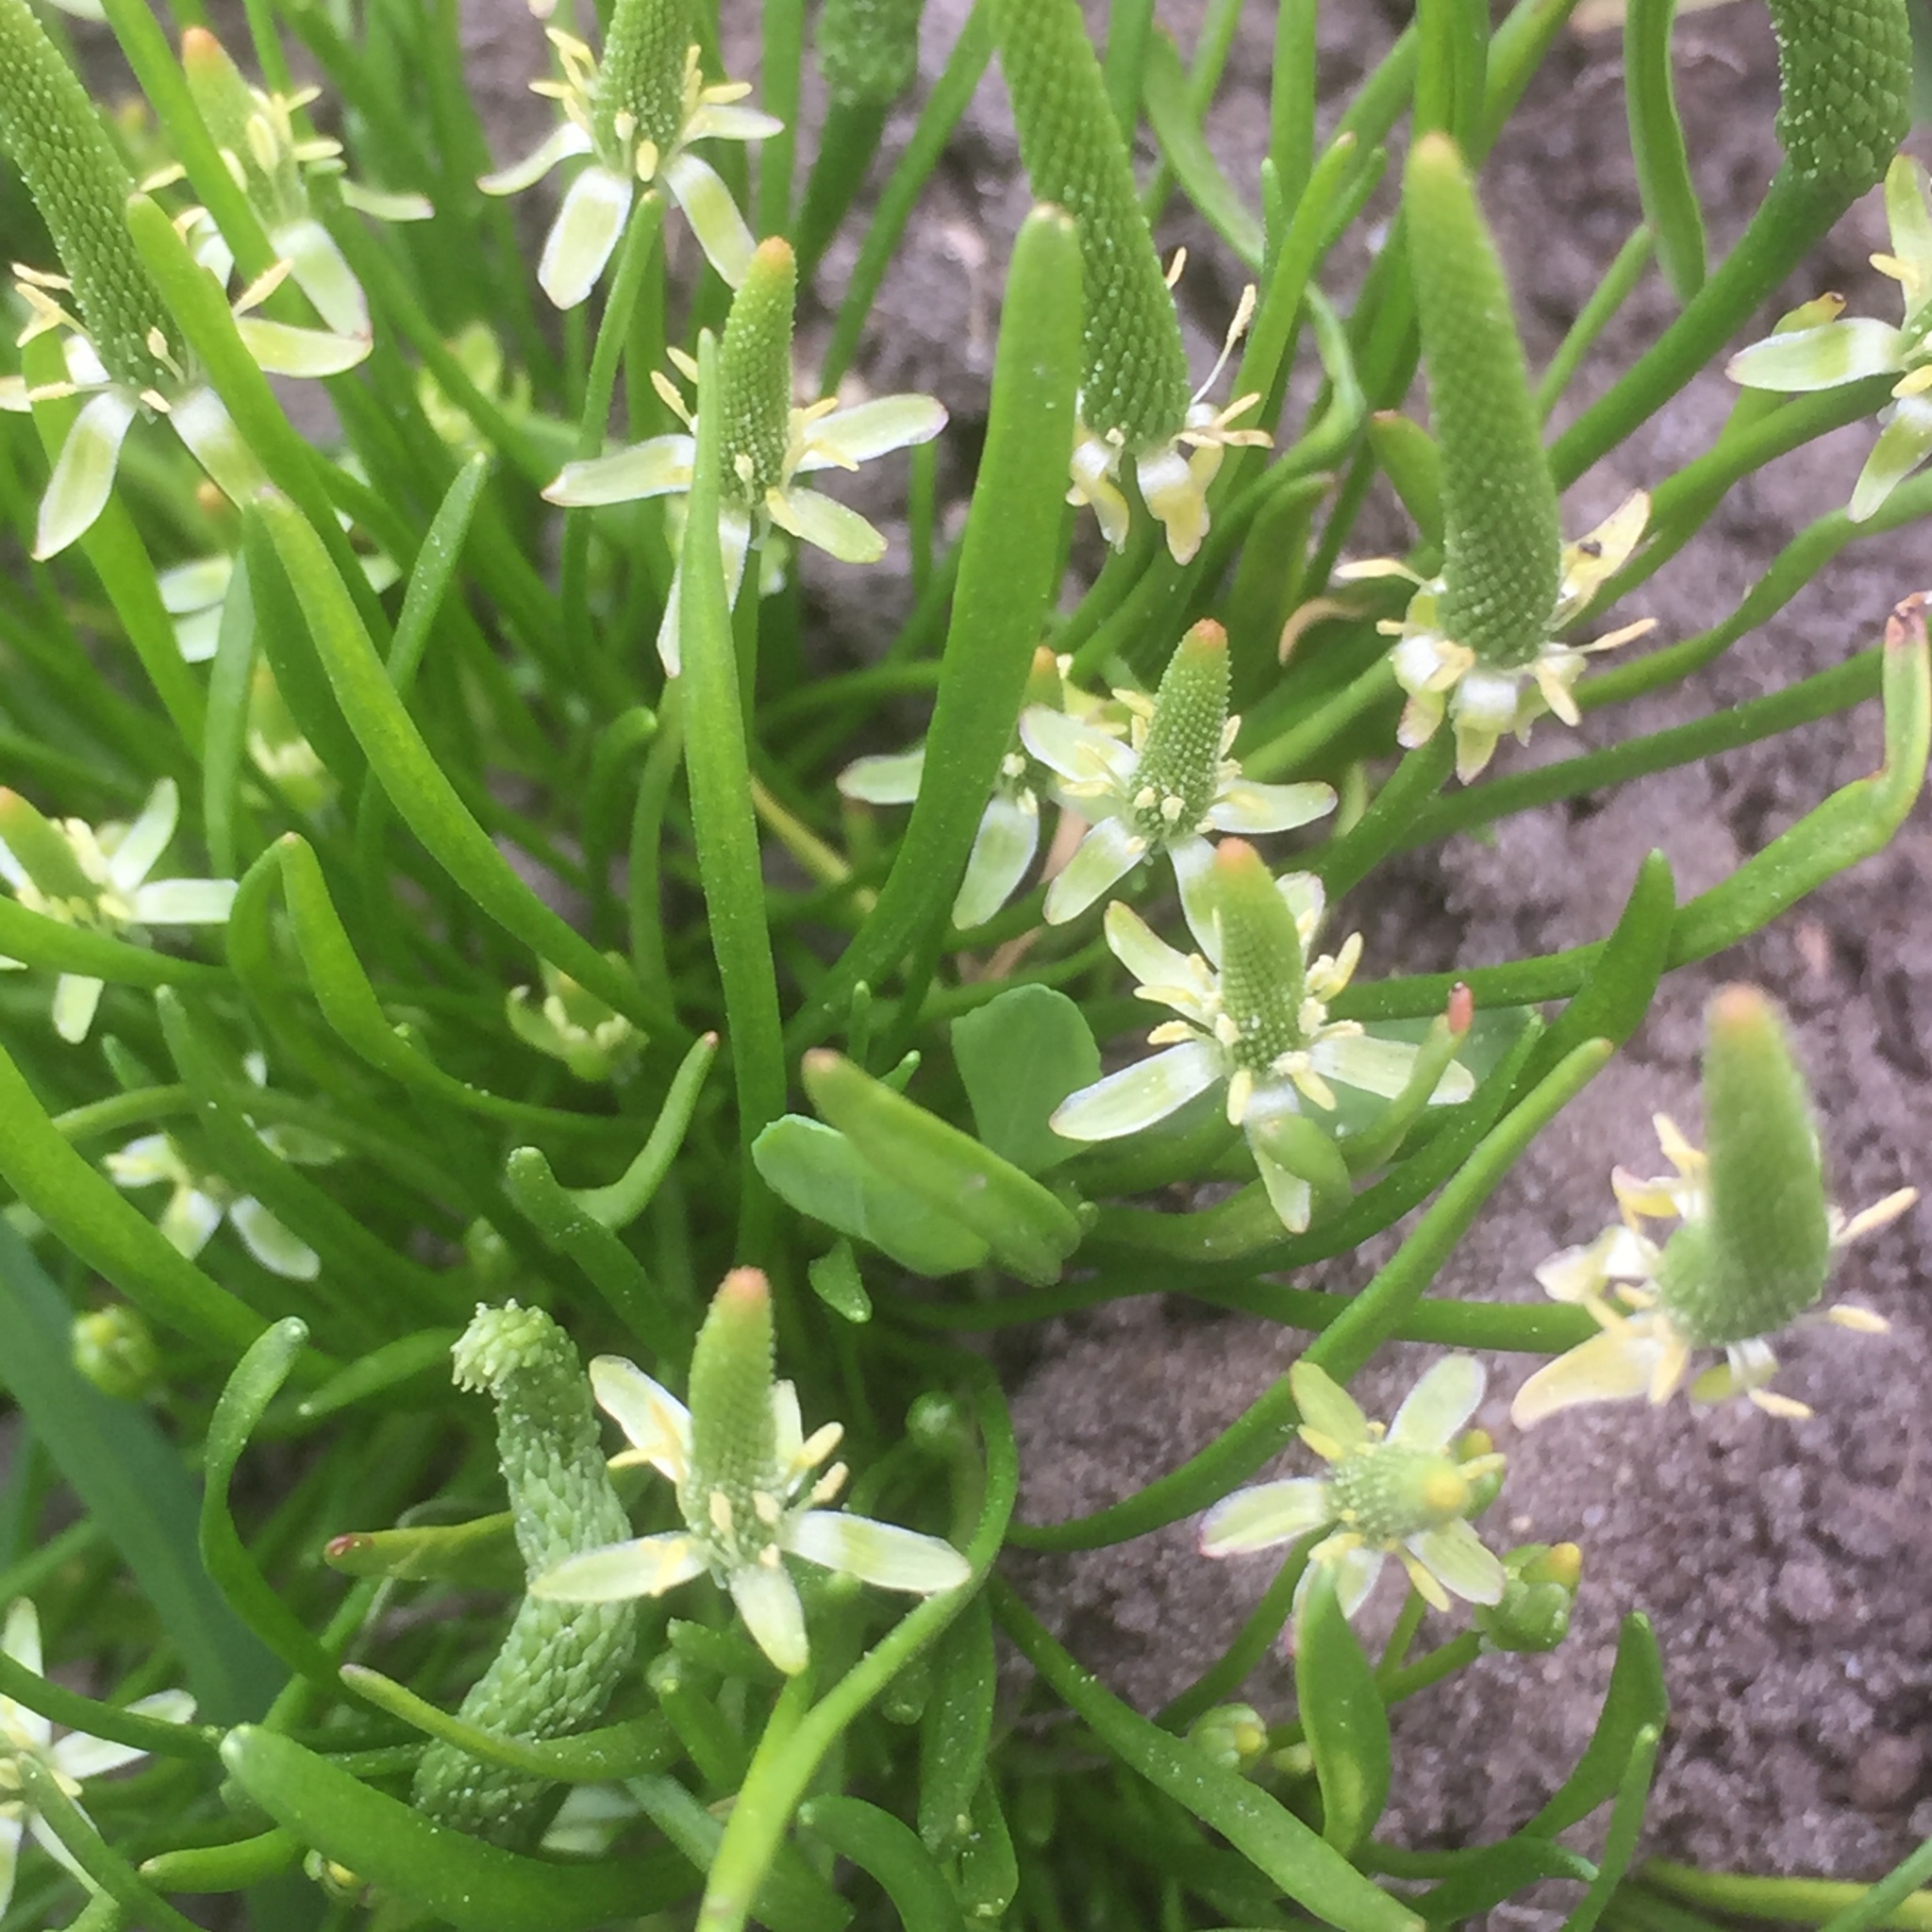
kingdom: Plantae
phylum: Tracheophyta
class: Magnoliopsida
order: Ranunculales
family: Ranunculaceae
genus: Myosurus
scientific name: Myosurus minimus
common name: Mousetail
